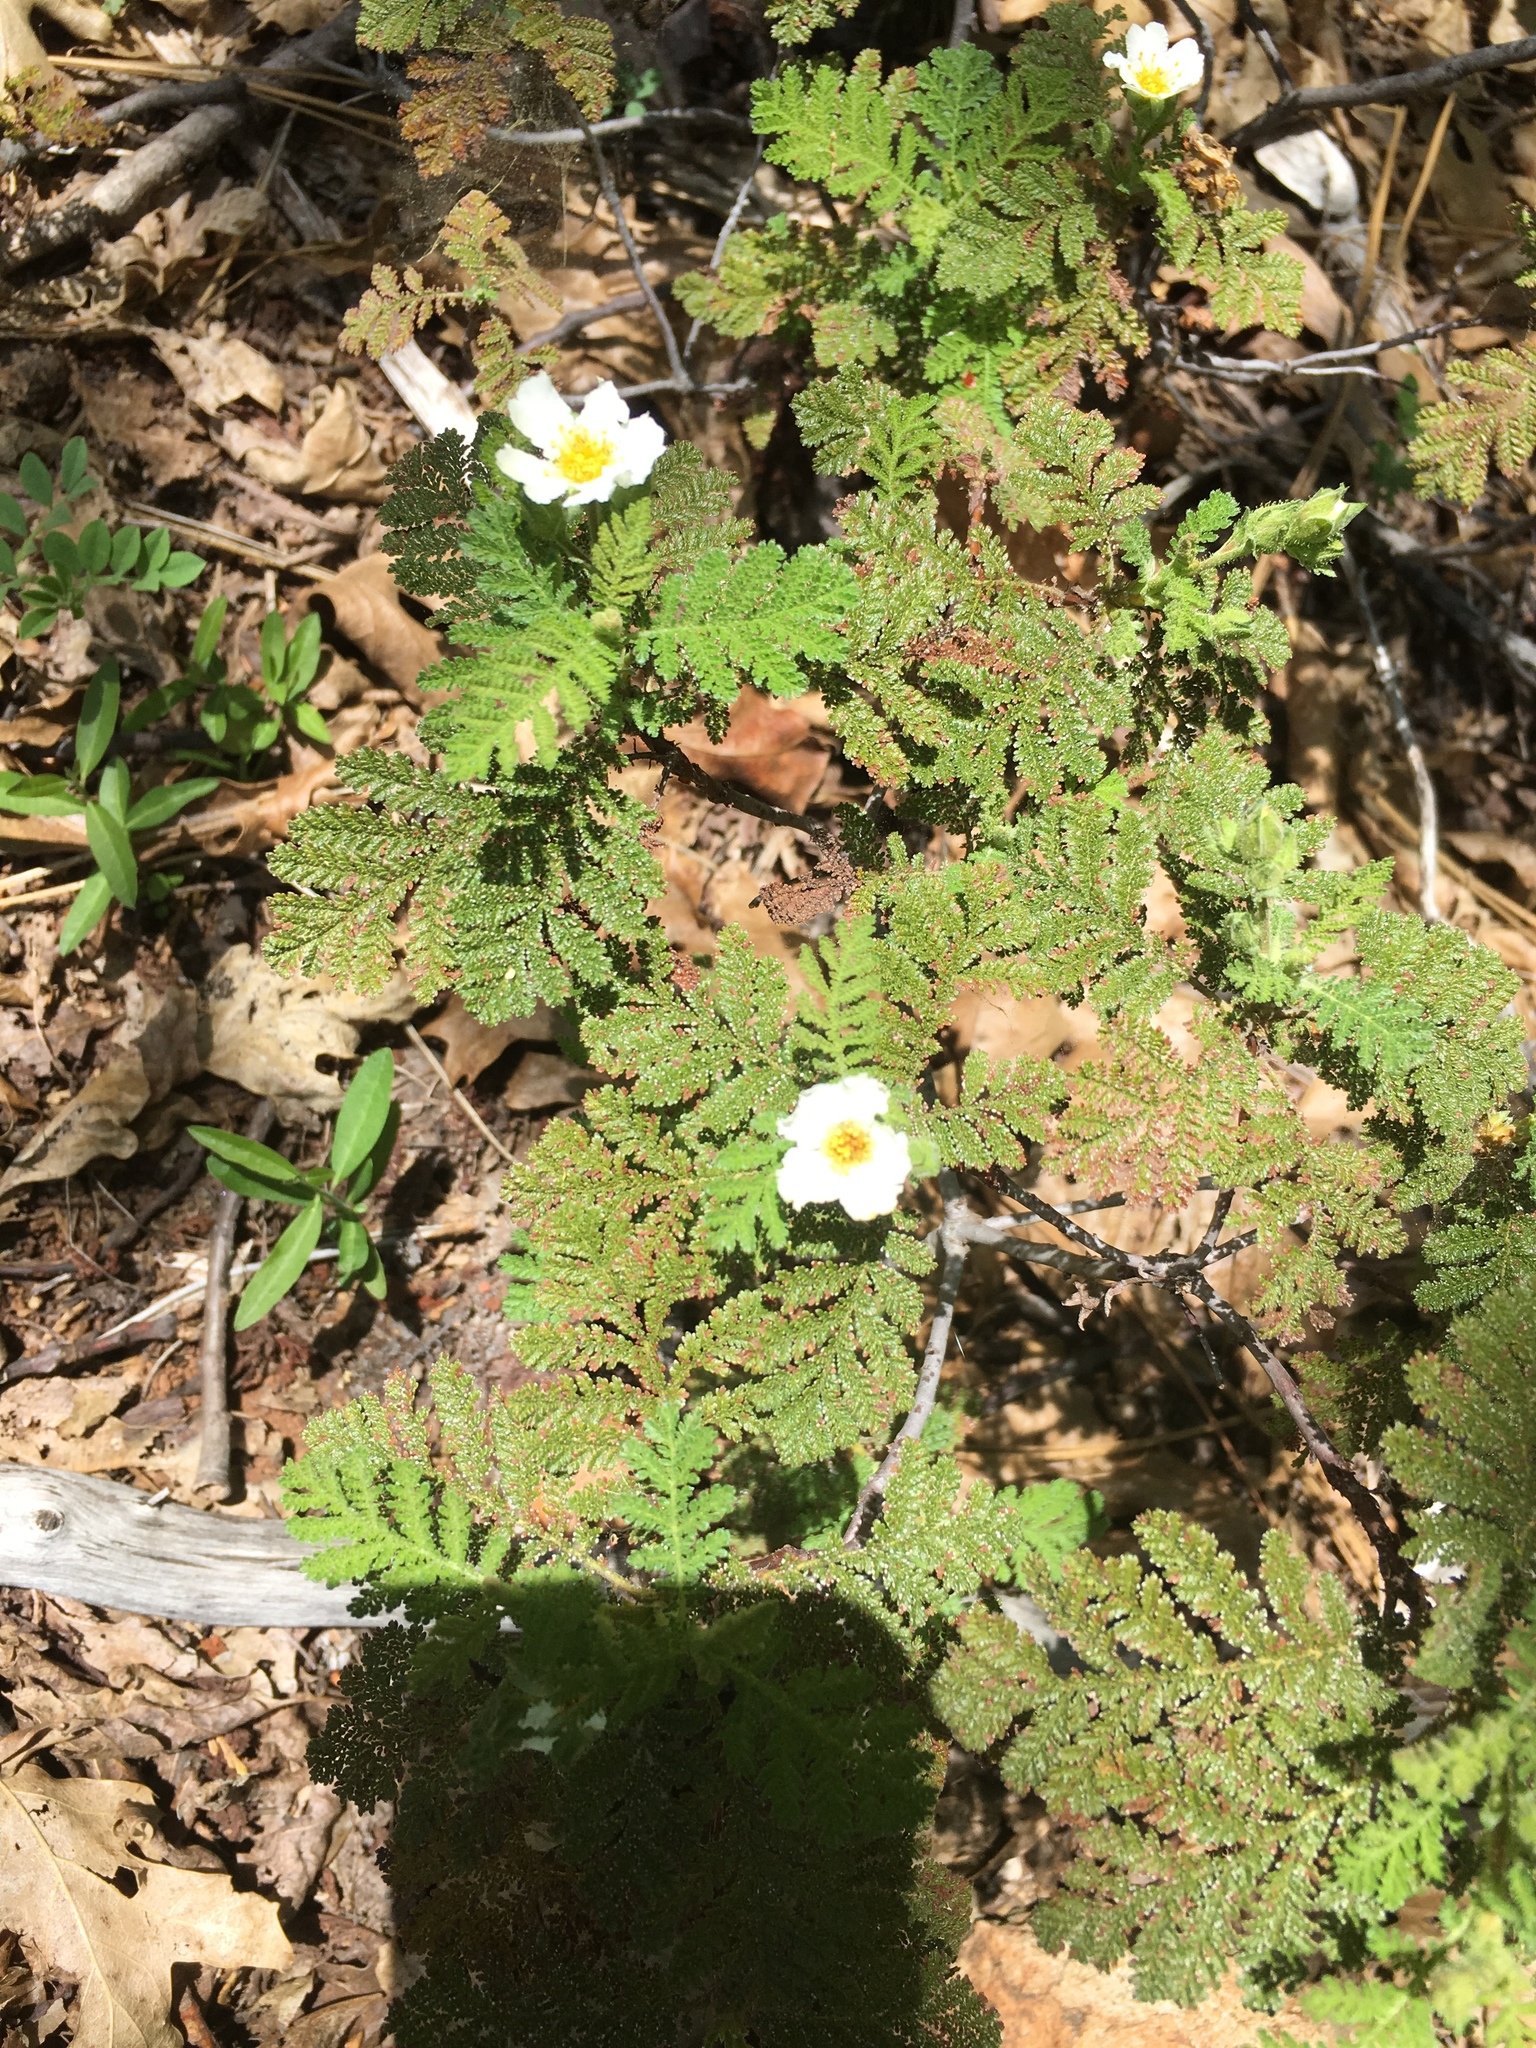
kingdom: Plantae
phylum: Tracheophyta
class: Magnoliopsida
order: Rosales
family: Rosaceae
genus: Chamaebatia
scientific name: Chamaebatia foliolosa
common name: Mountain misery
